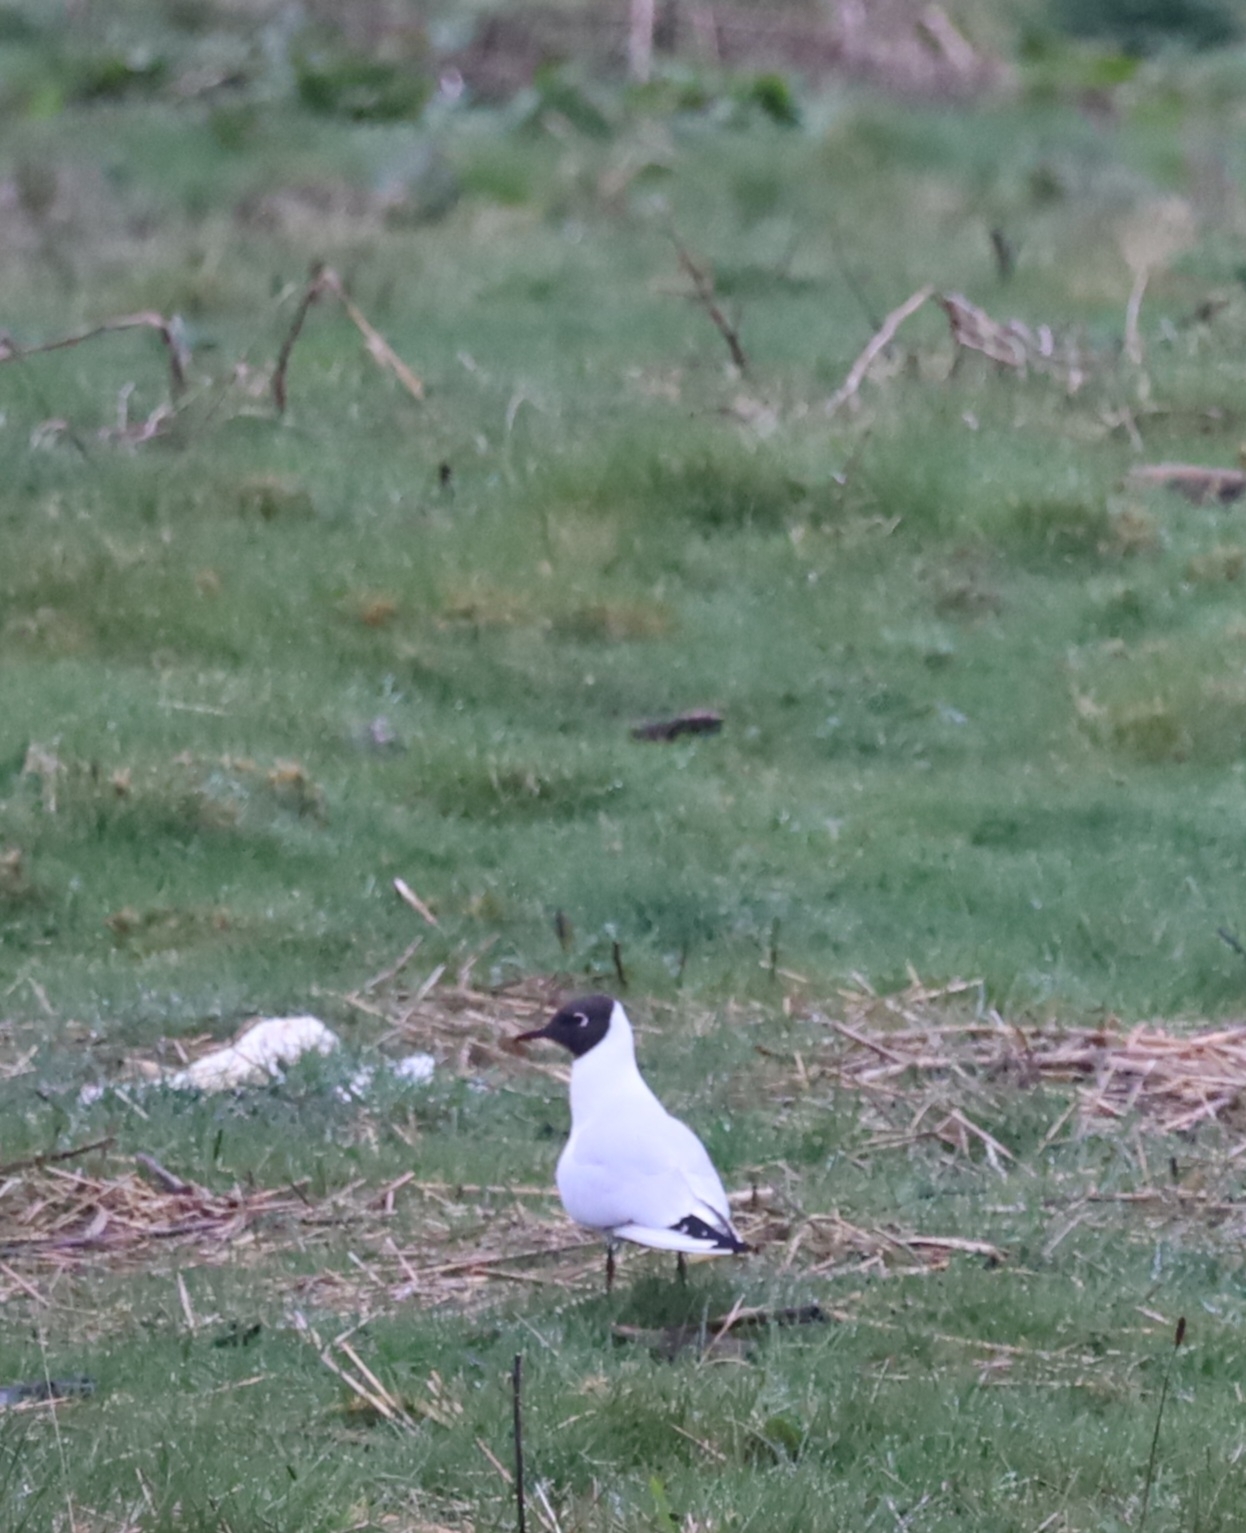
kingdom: Animalia
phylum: Chordata
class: Aves
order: Charadriiformes
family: Laridae
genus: Chroicocephalus
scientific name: Chroicocephalus ridibundus
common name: Black-headed gull
